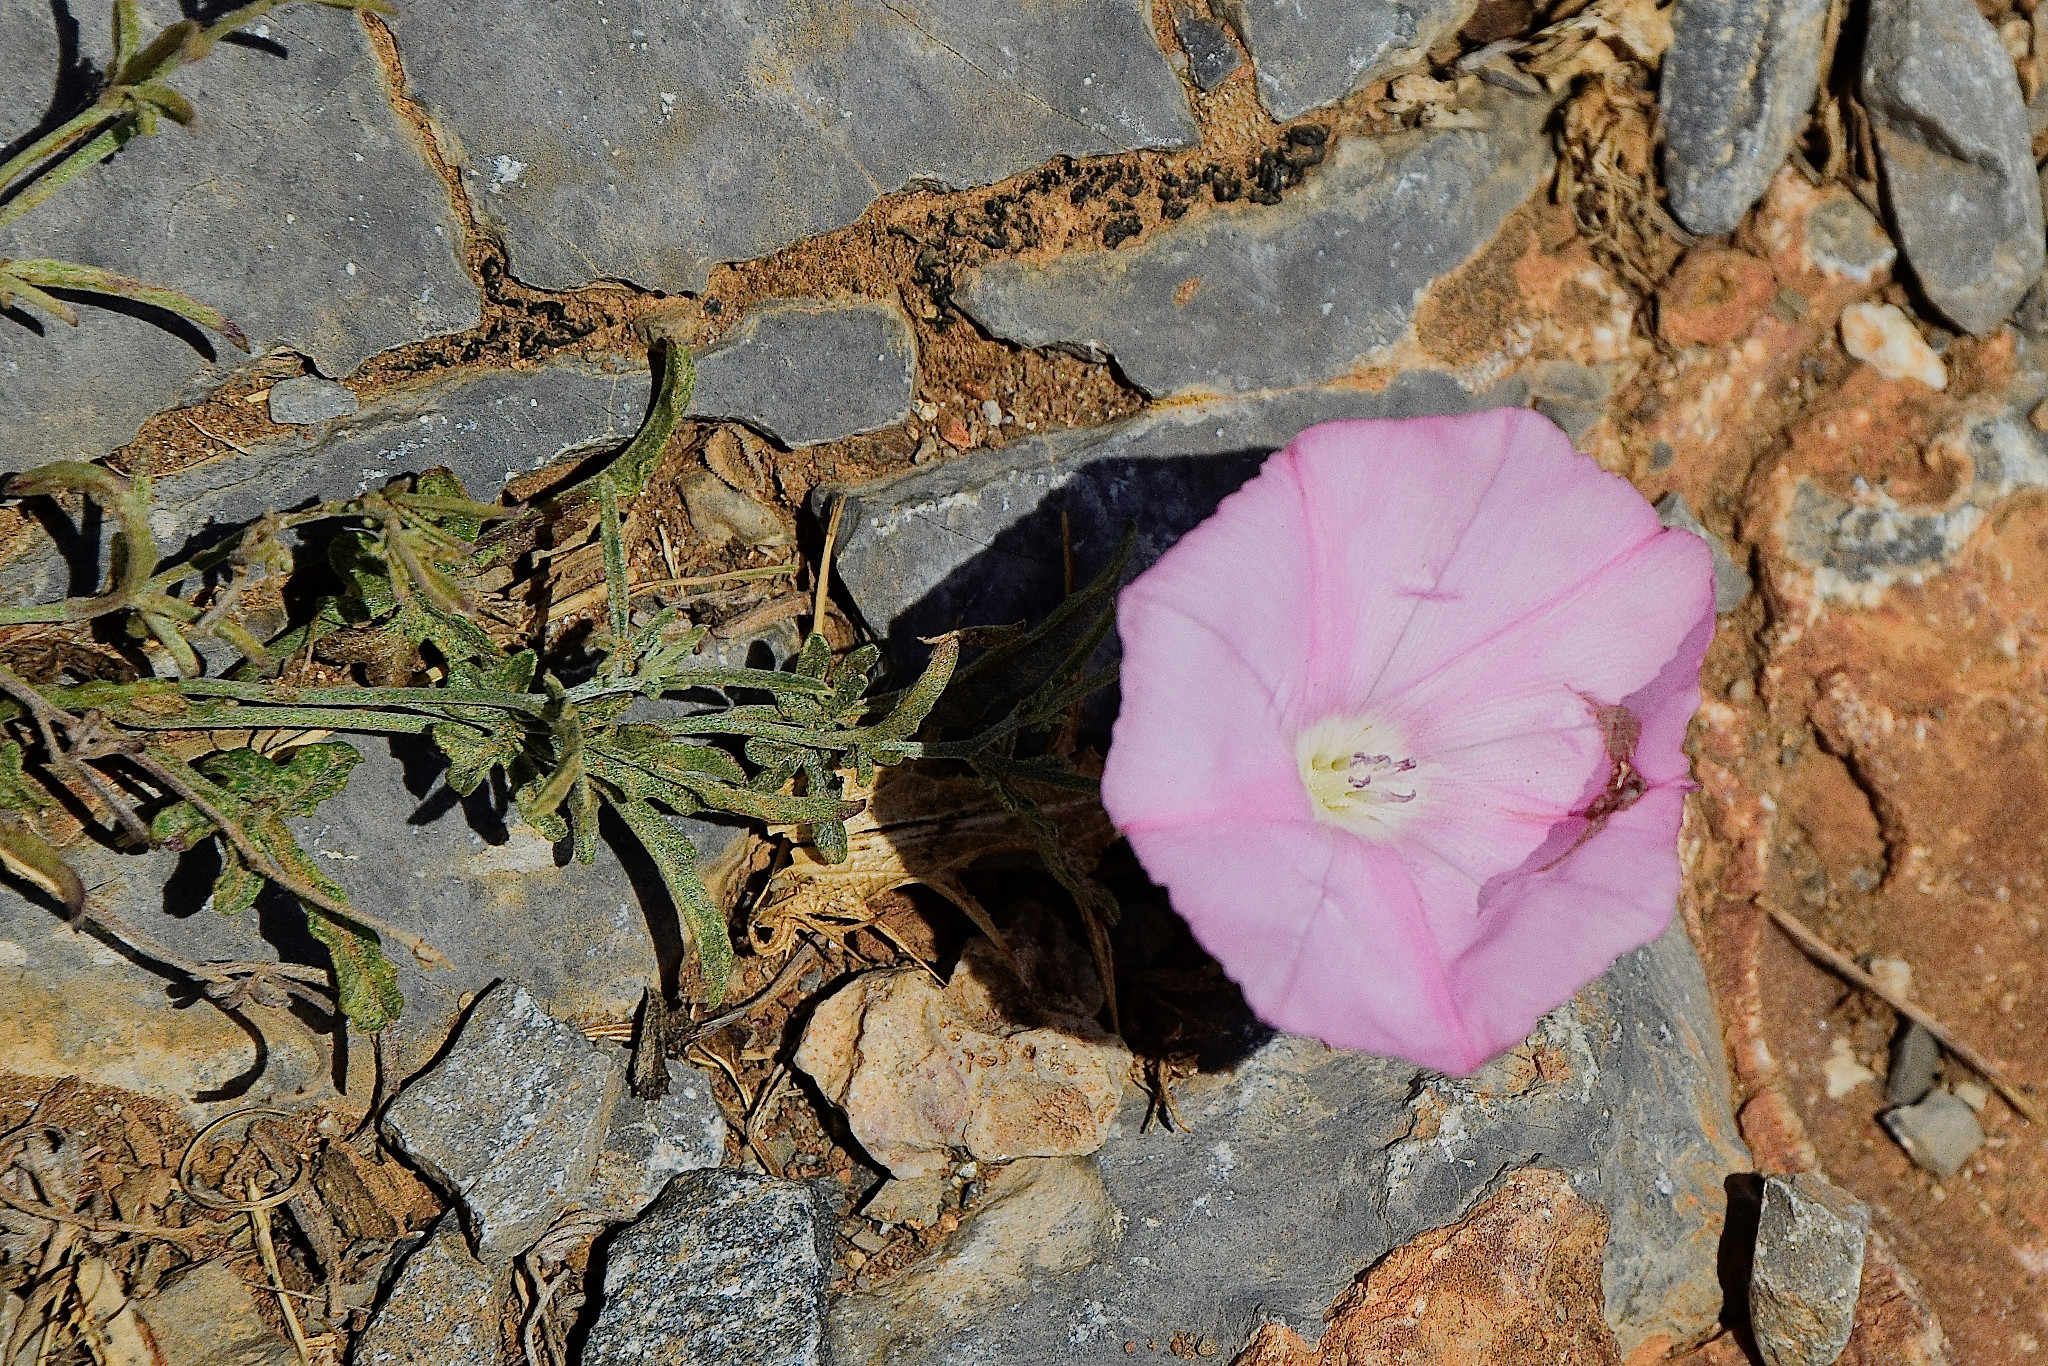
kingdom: Plantae
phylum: Tracheophyta
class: Magnoliopsida
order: Solanales
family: Convolvulaceae
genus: Convolvulus
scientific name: Convolvulus elegantissimus
